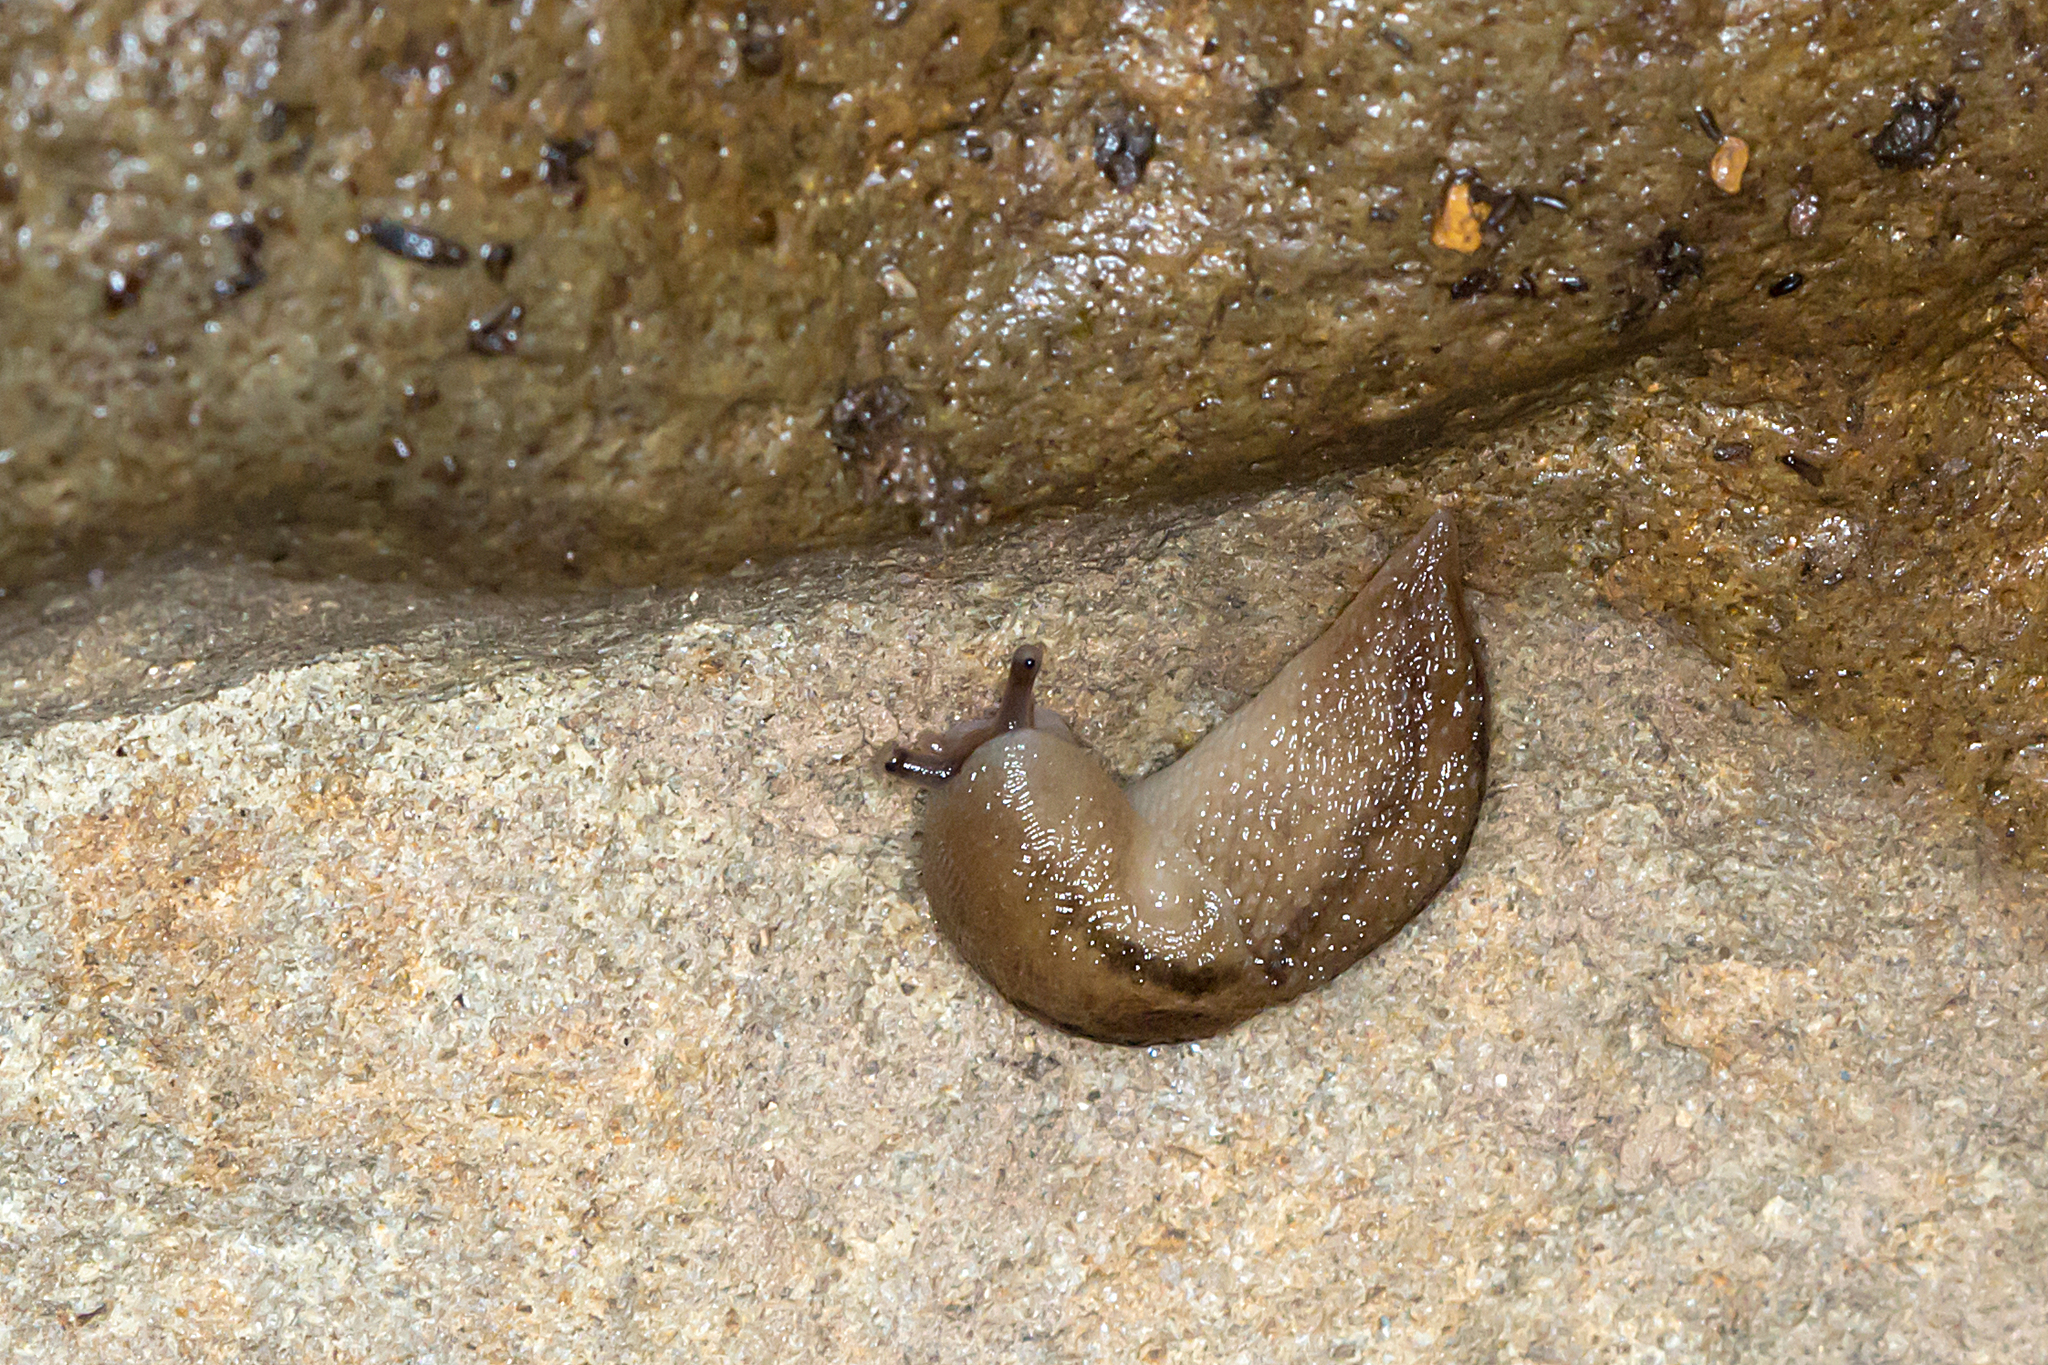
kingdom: Animalia
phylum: Mollusca
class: Gastropoda
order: Stylommatophora
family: Limacidae
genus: Ambigolimax
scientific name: Ambigolimax
